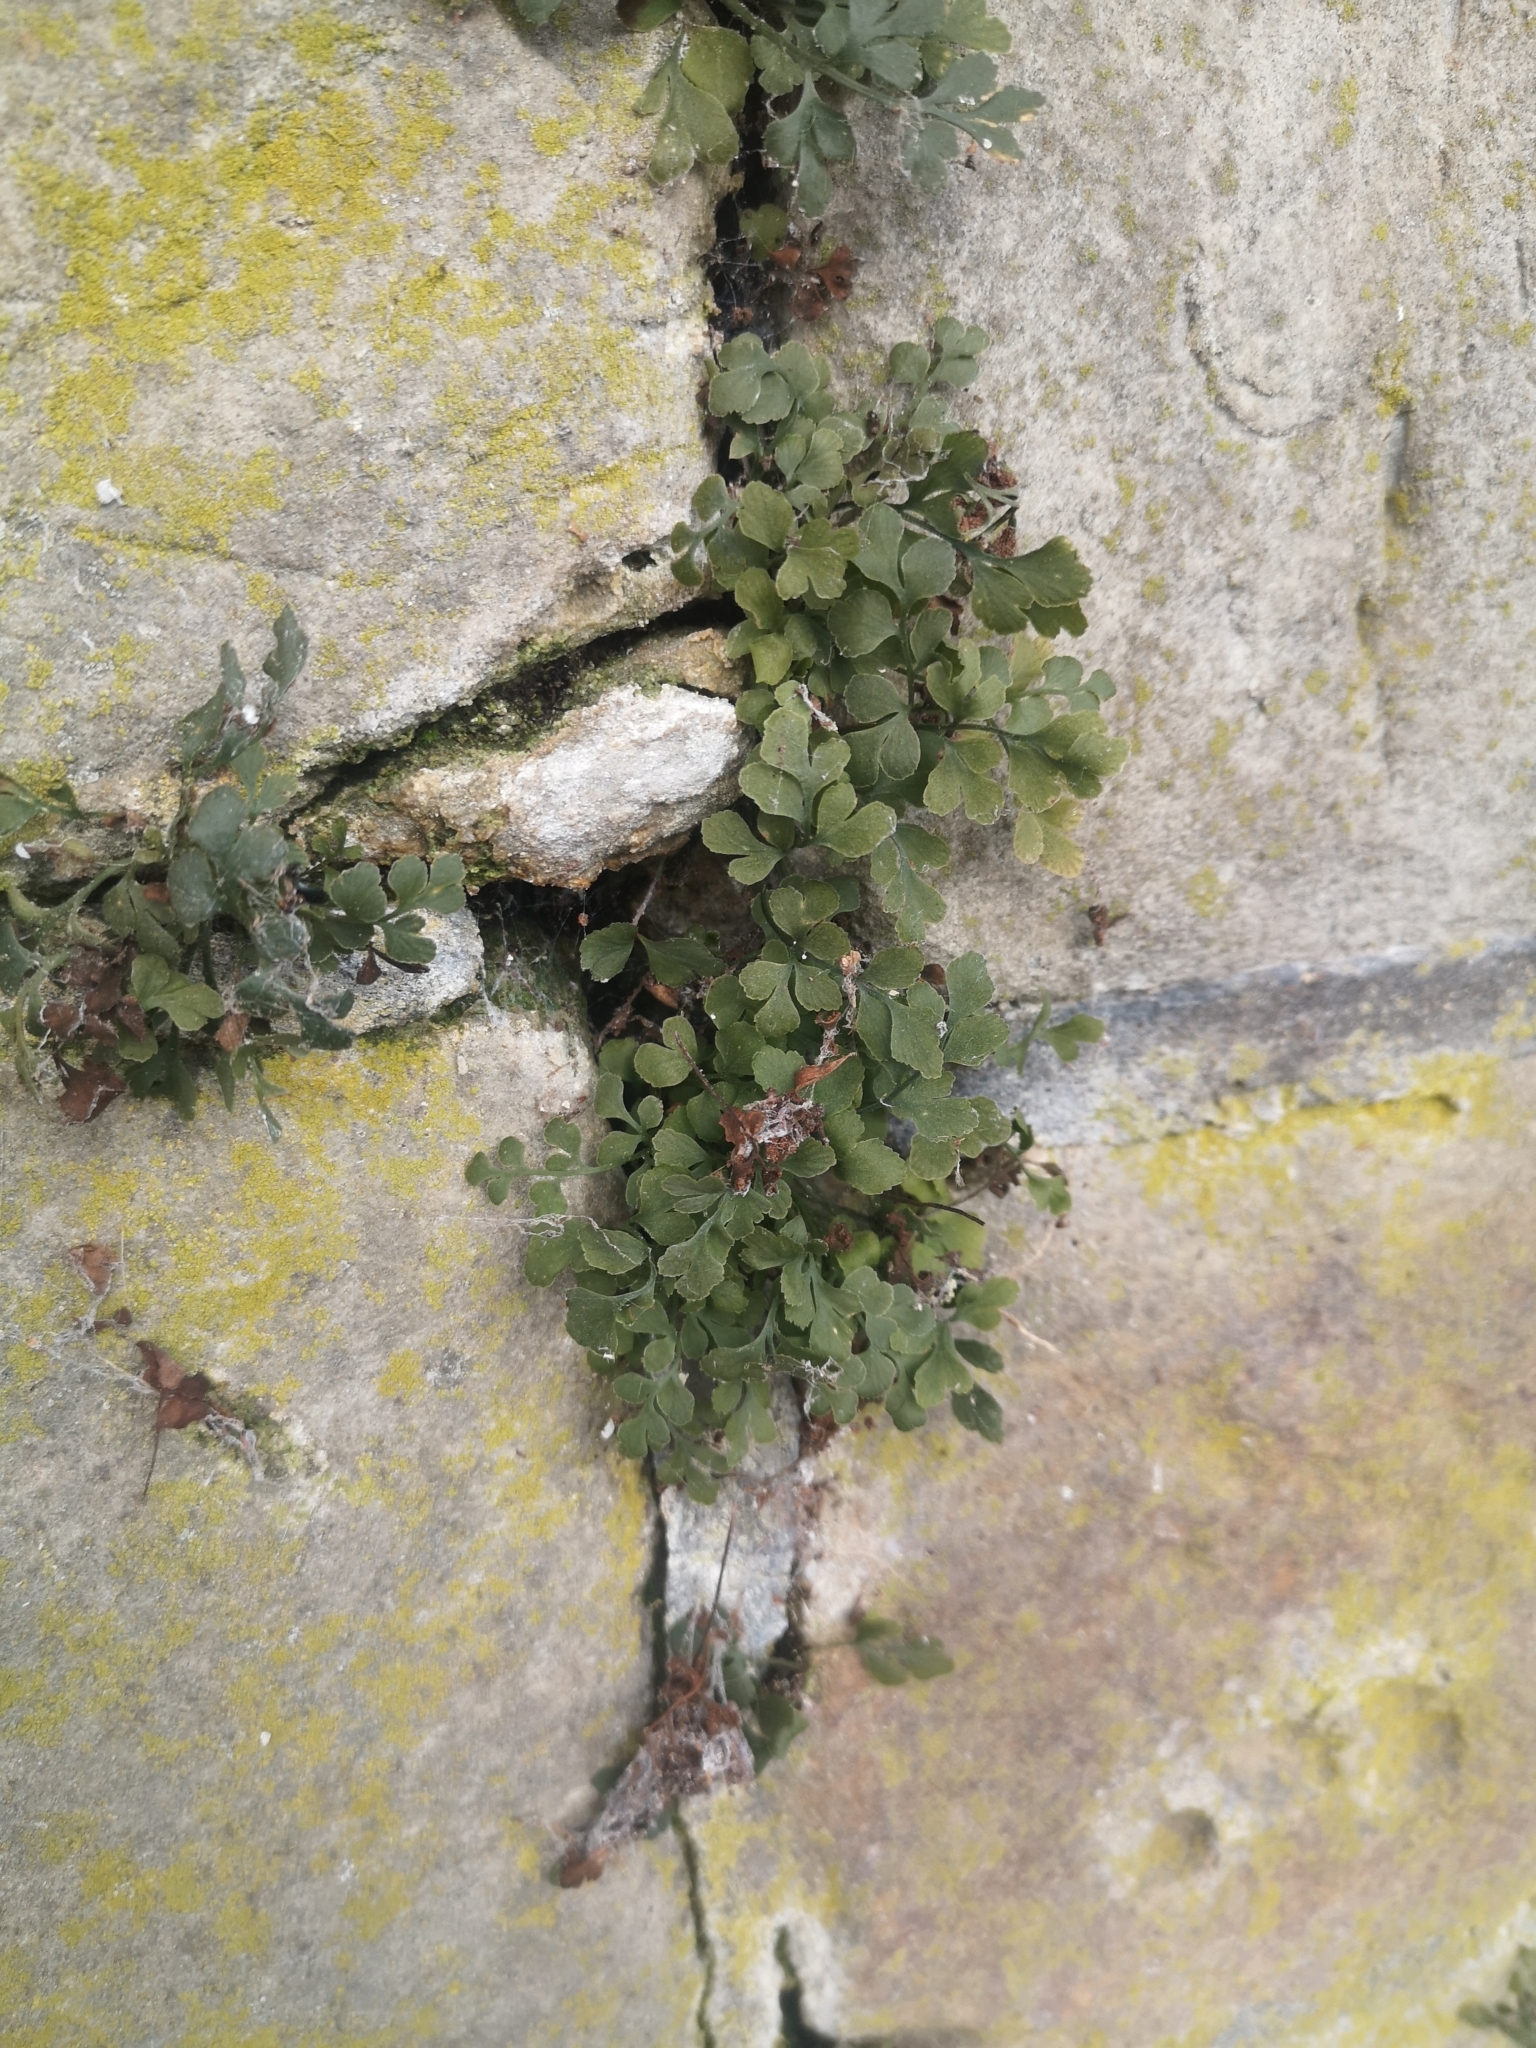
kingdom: Plantae
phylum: Tracheophyta
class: Polypodiopsida
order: Polypodiales
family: Aspleniaceae
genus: Asplenium
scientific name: Asplenium ruta-muraria
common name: Wall-rue
